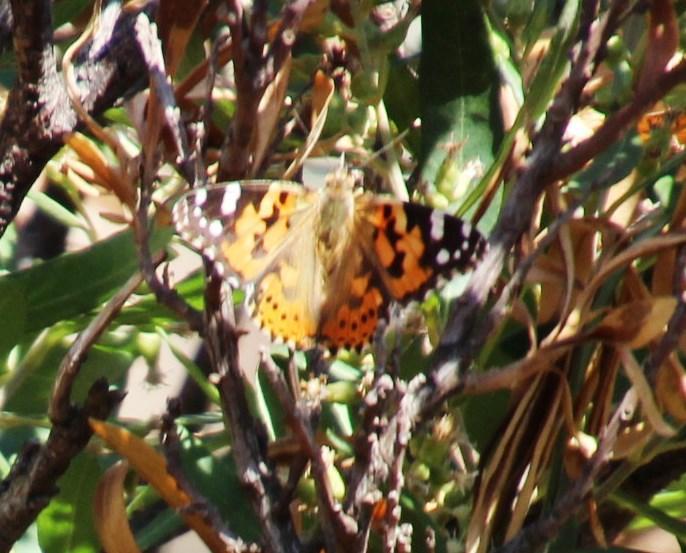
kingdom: Animalia
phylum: Arthropoda
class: Insecta
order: Lepidoptera
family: Nymphalidae
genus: Vanessa
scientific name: Vanessa cardui
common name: Painted lady
